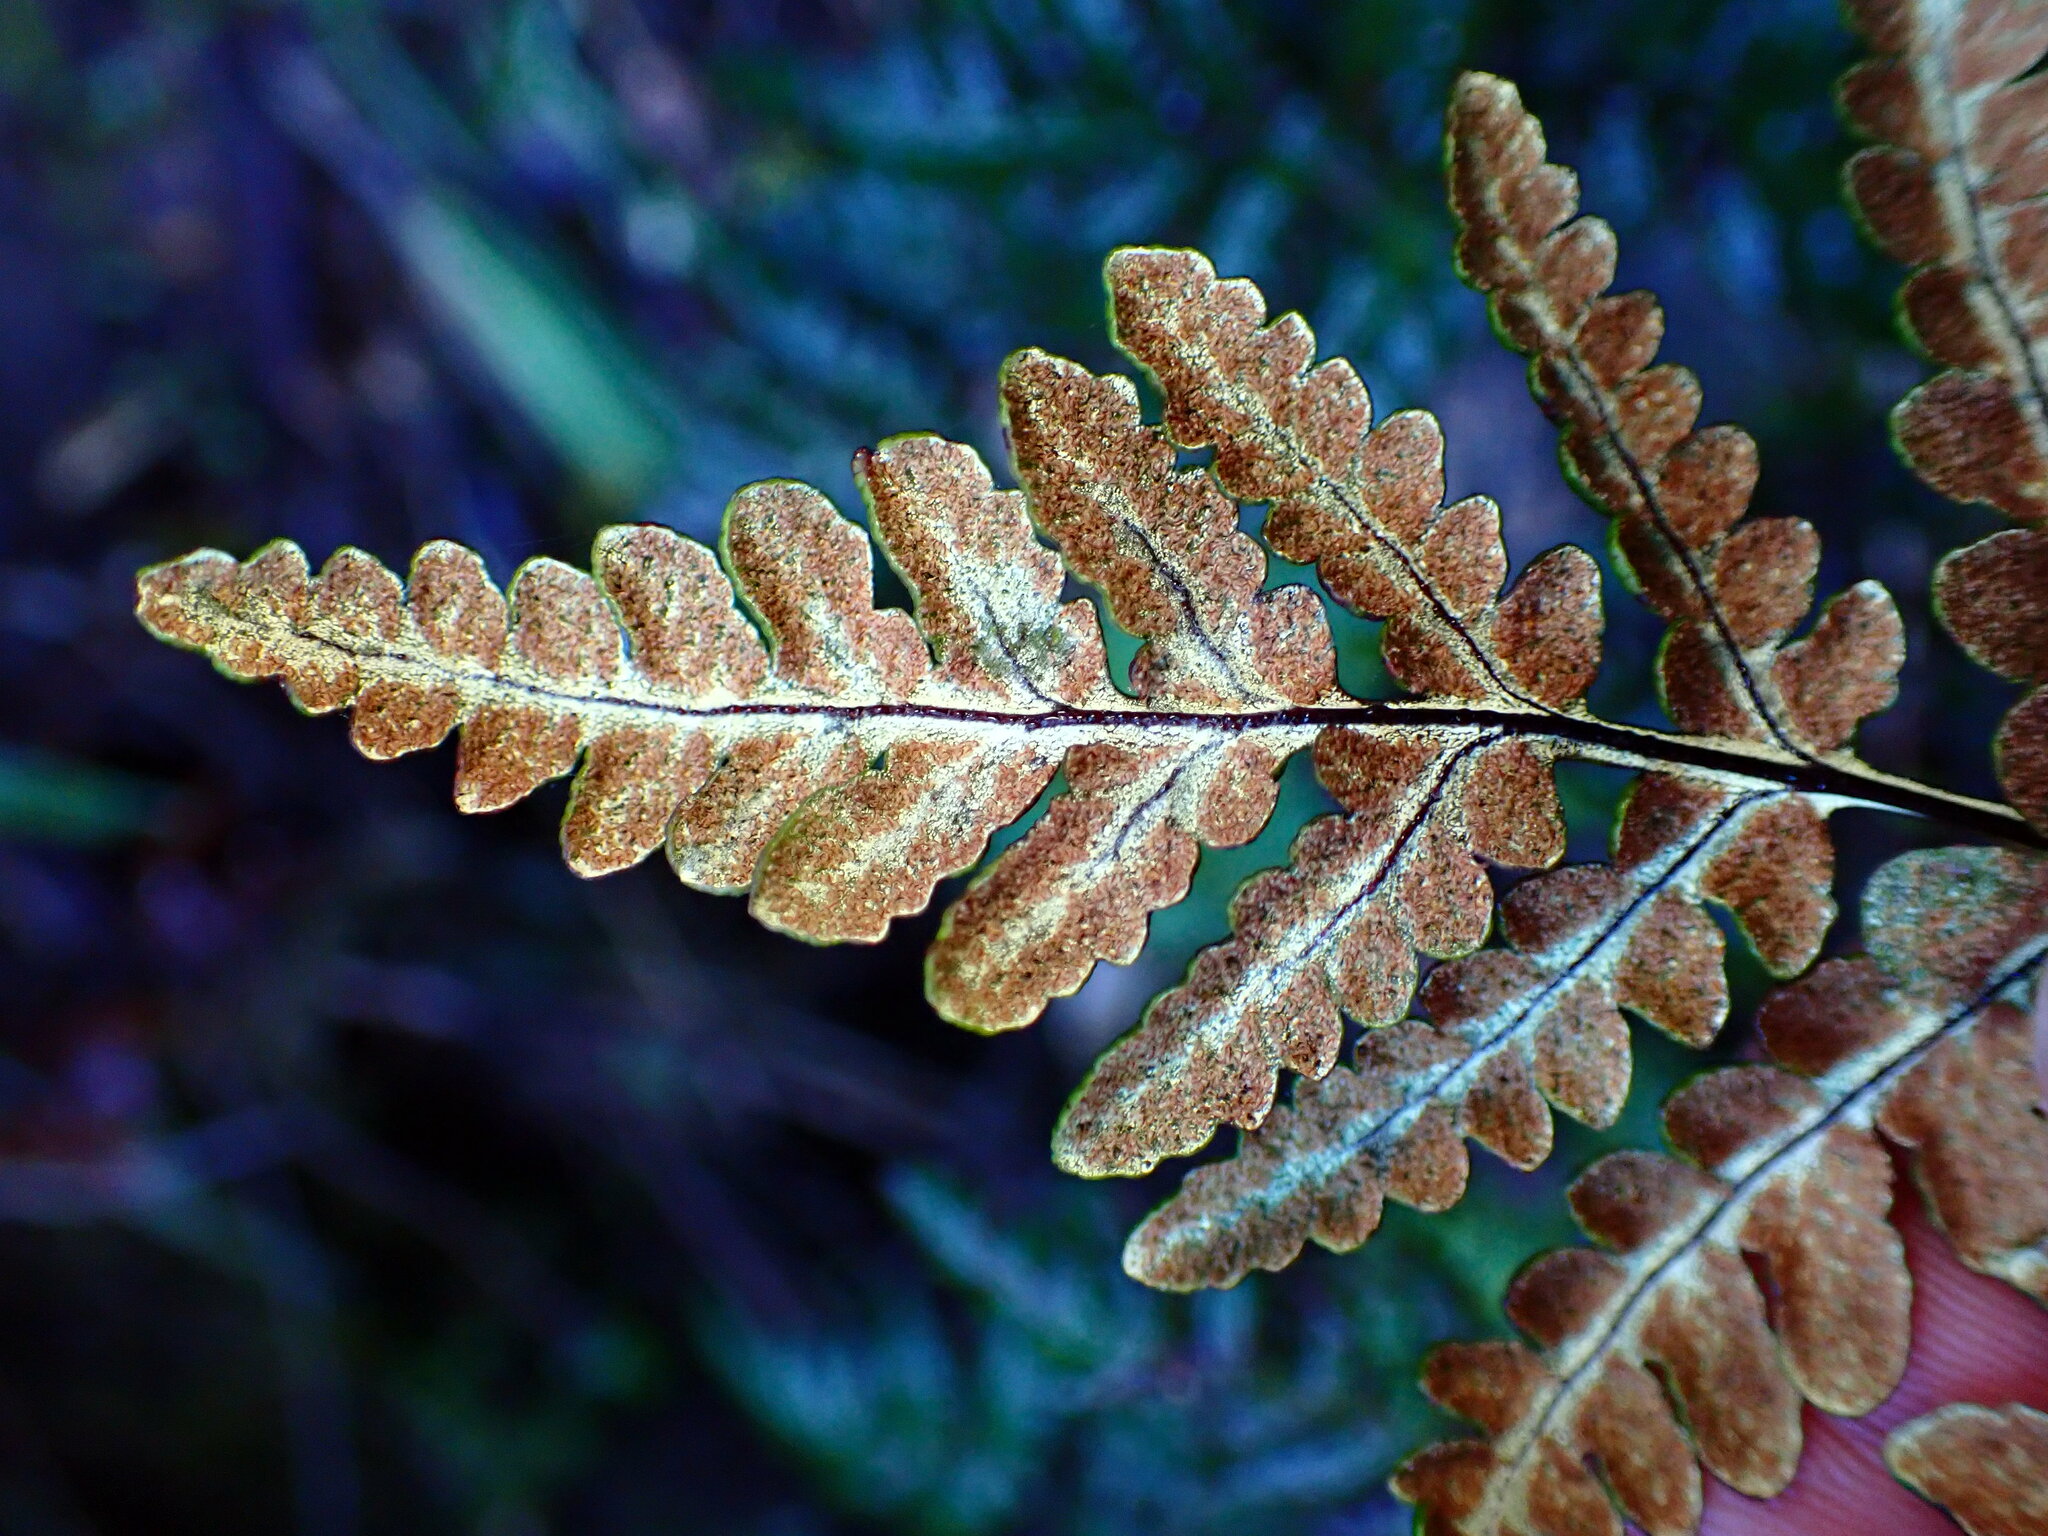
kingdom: Plantae
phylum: Tracheophyta
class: Polypodiopsida
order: Polypodiales
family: Pteridaceae
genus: Pentagramma
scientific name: Pentagramma triangularis
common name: Gold fern
